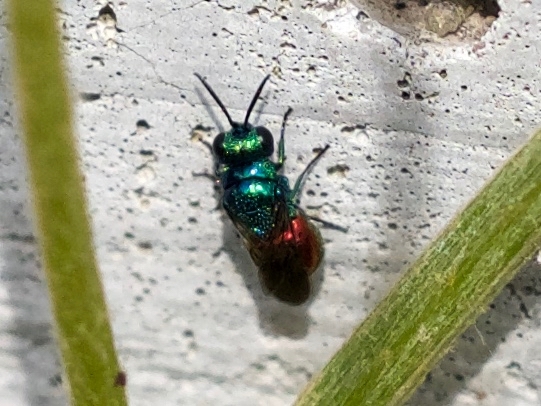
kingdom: Animalia
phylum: Arthropoda
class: Insecta
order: Hymenoptera
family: Chrysididae
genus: Pseudomalus
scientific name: Pseudomalus auratus
